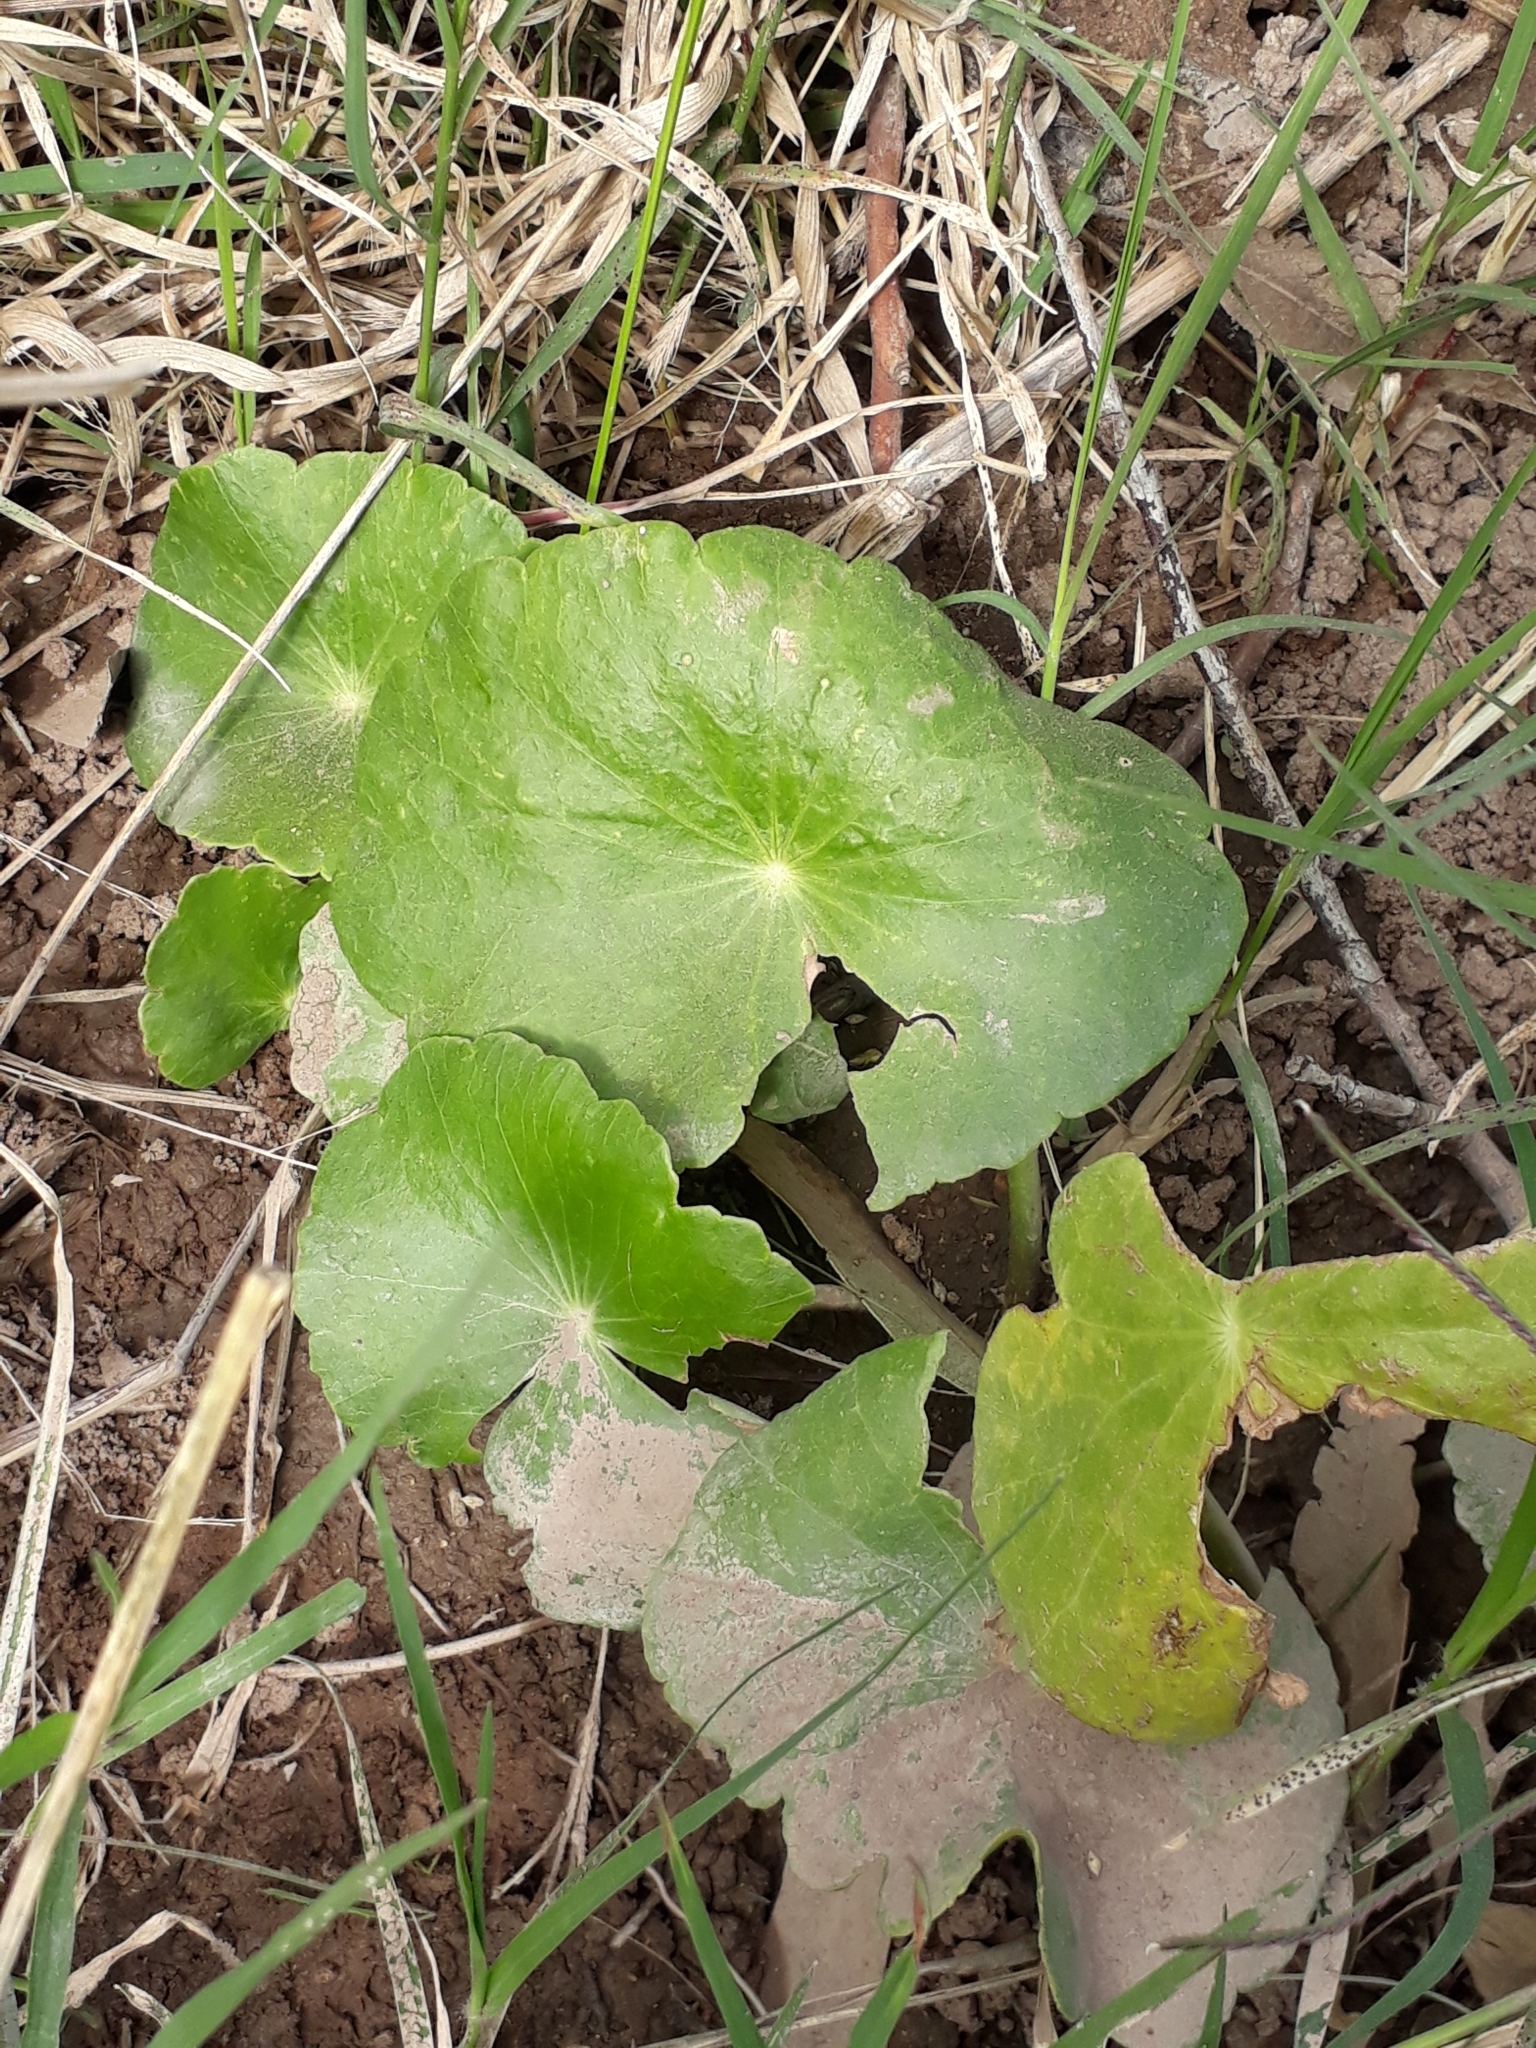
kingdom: Plantae
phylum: Tracheophyta
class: Magnoliopsida
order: Apiales
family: Araliaceae
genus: Hydrocotyle
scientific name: Hydrocotyle bonariensis
